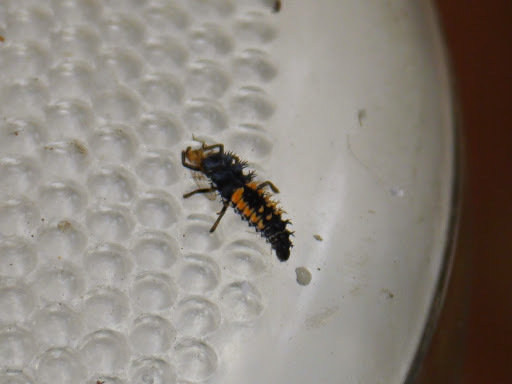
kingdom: Animalia
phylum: Arthropoda
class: Insecta
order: Coleoptera
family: Coccinellidae
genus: Harmonia
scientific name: Harmonia axyridis
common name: Harlequin ladybird
